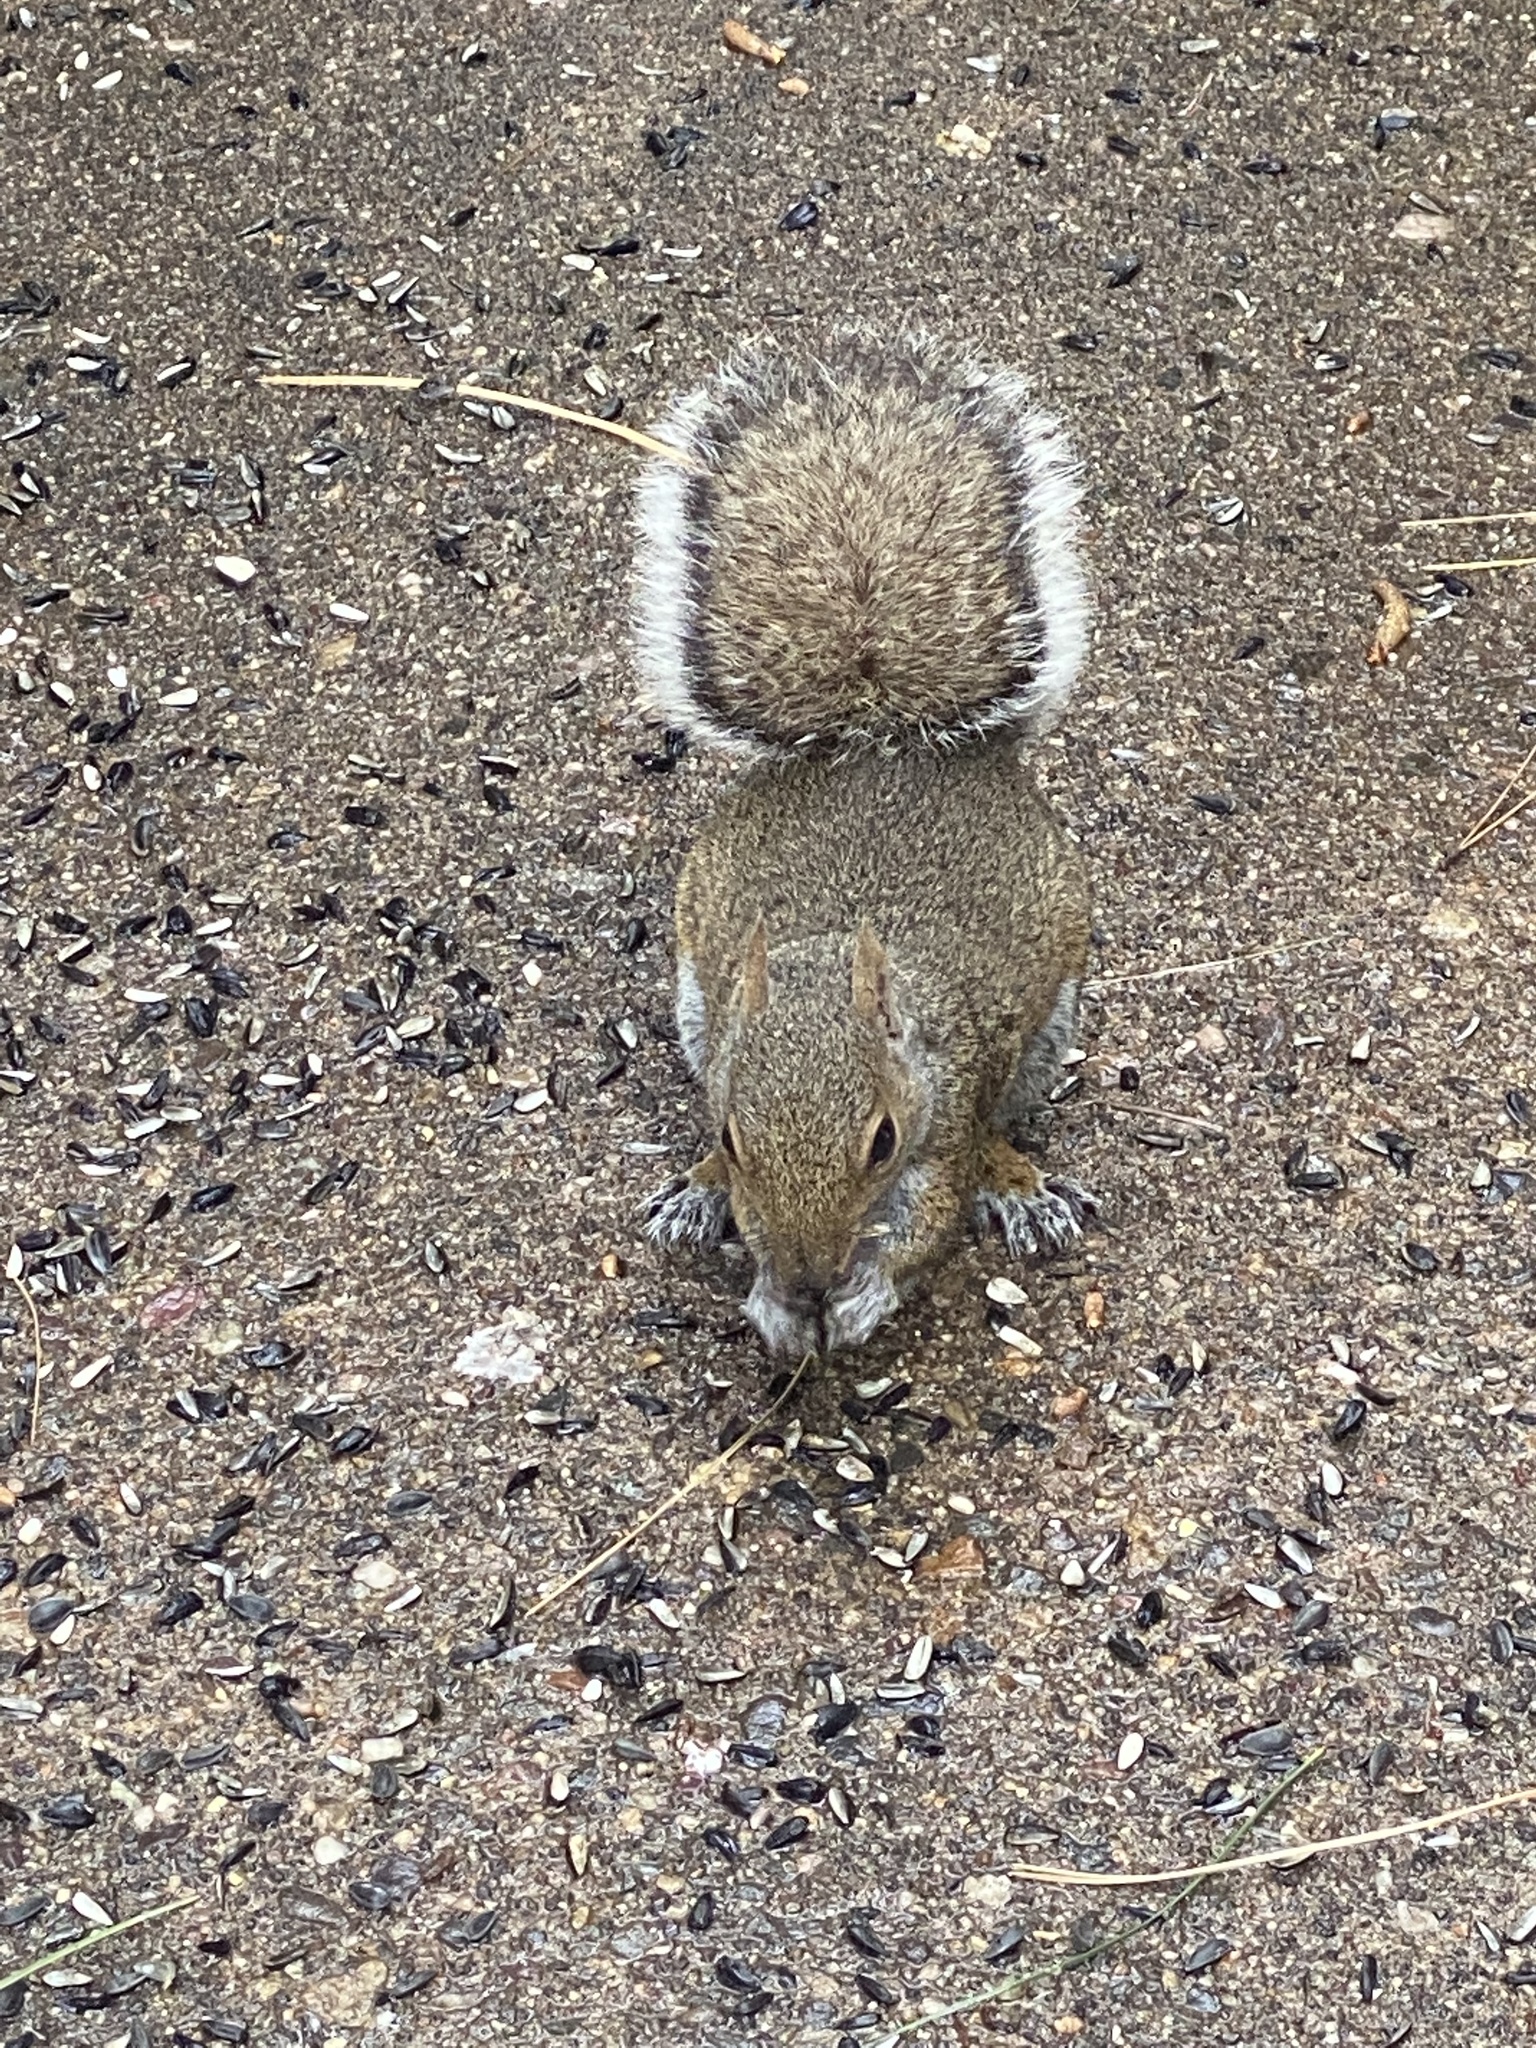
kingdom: Animalia
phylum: Chordata
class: Mammalia
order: Rodentia
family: Sciuridae
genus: Sciurus
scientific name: Sciurus carolinensis
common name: Eastern gray squirrel
